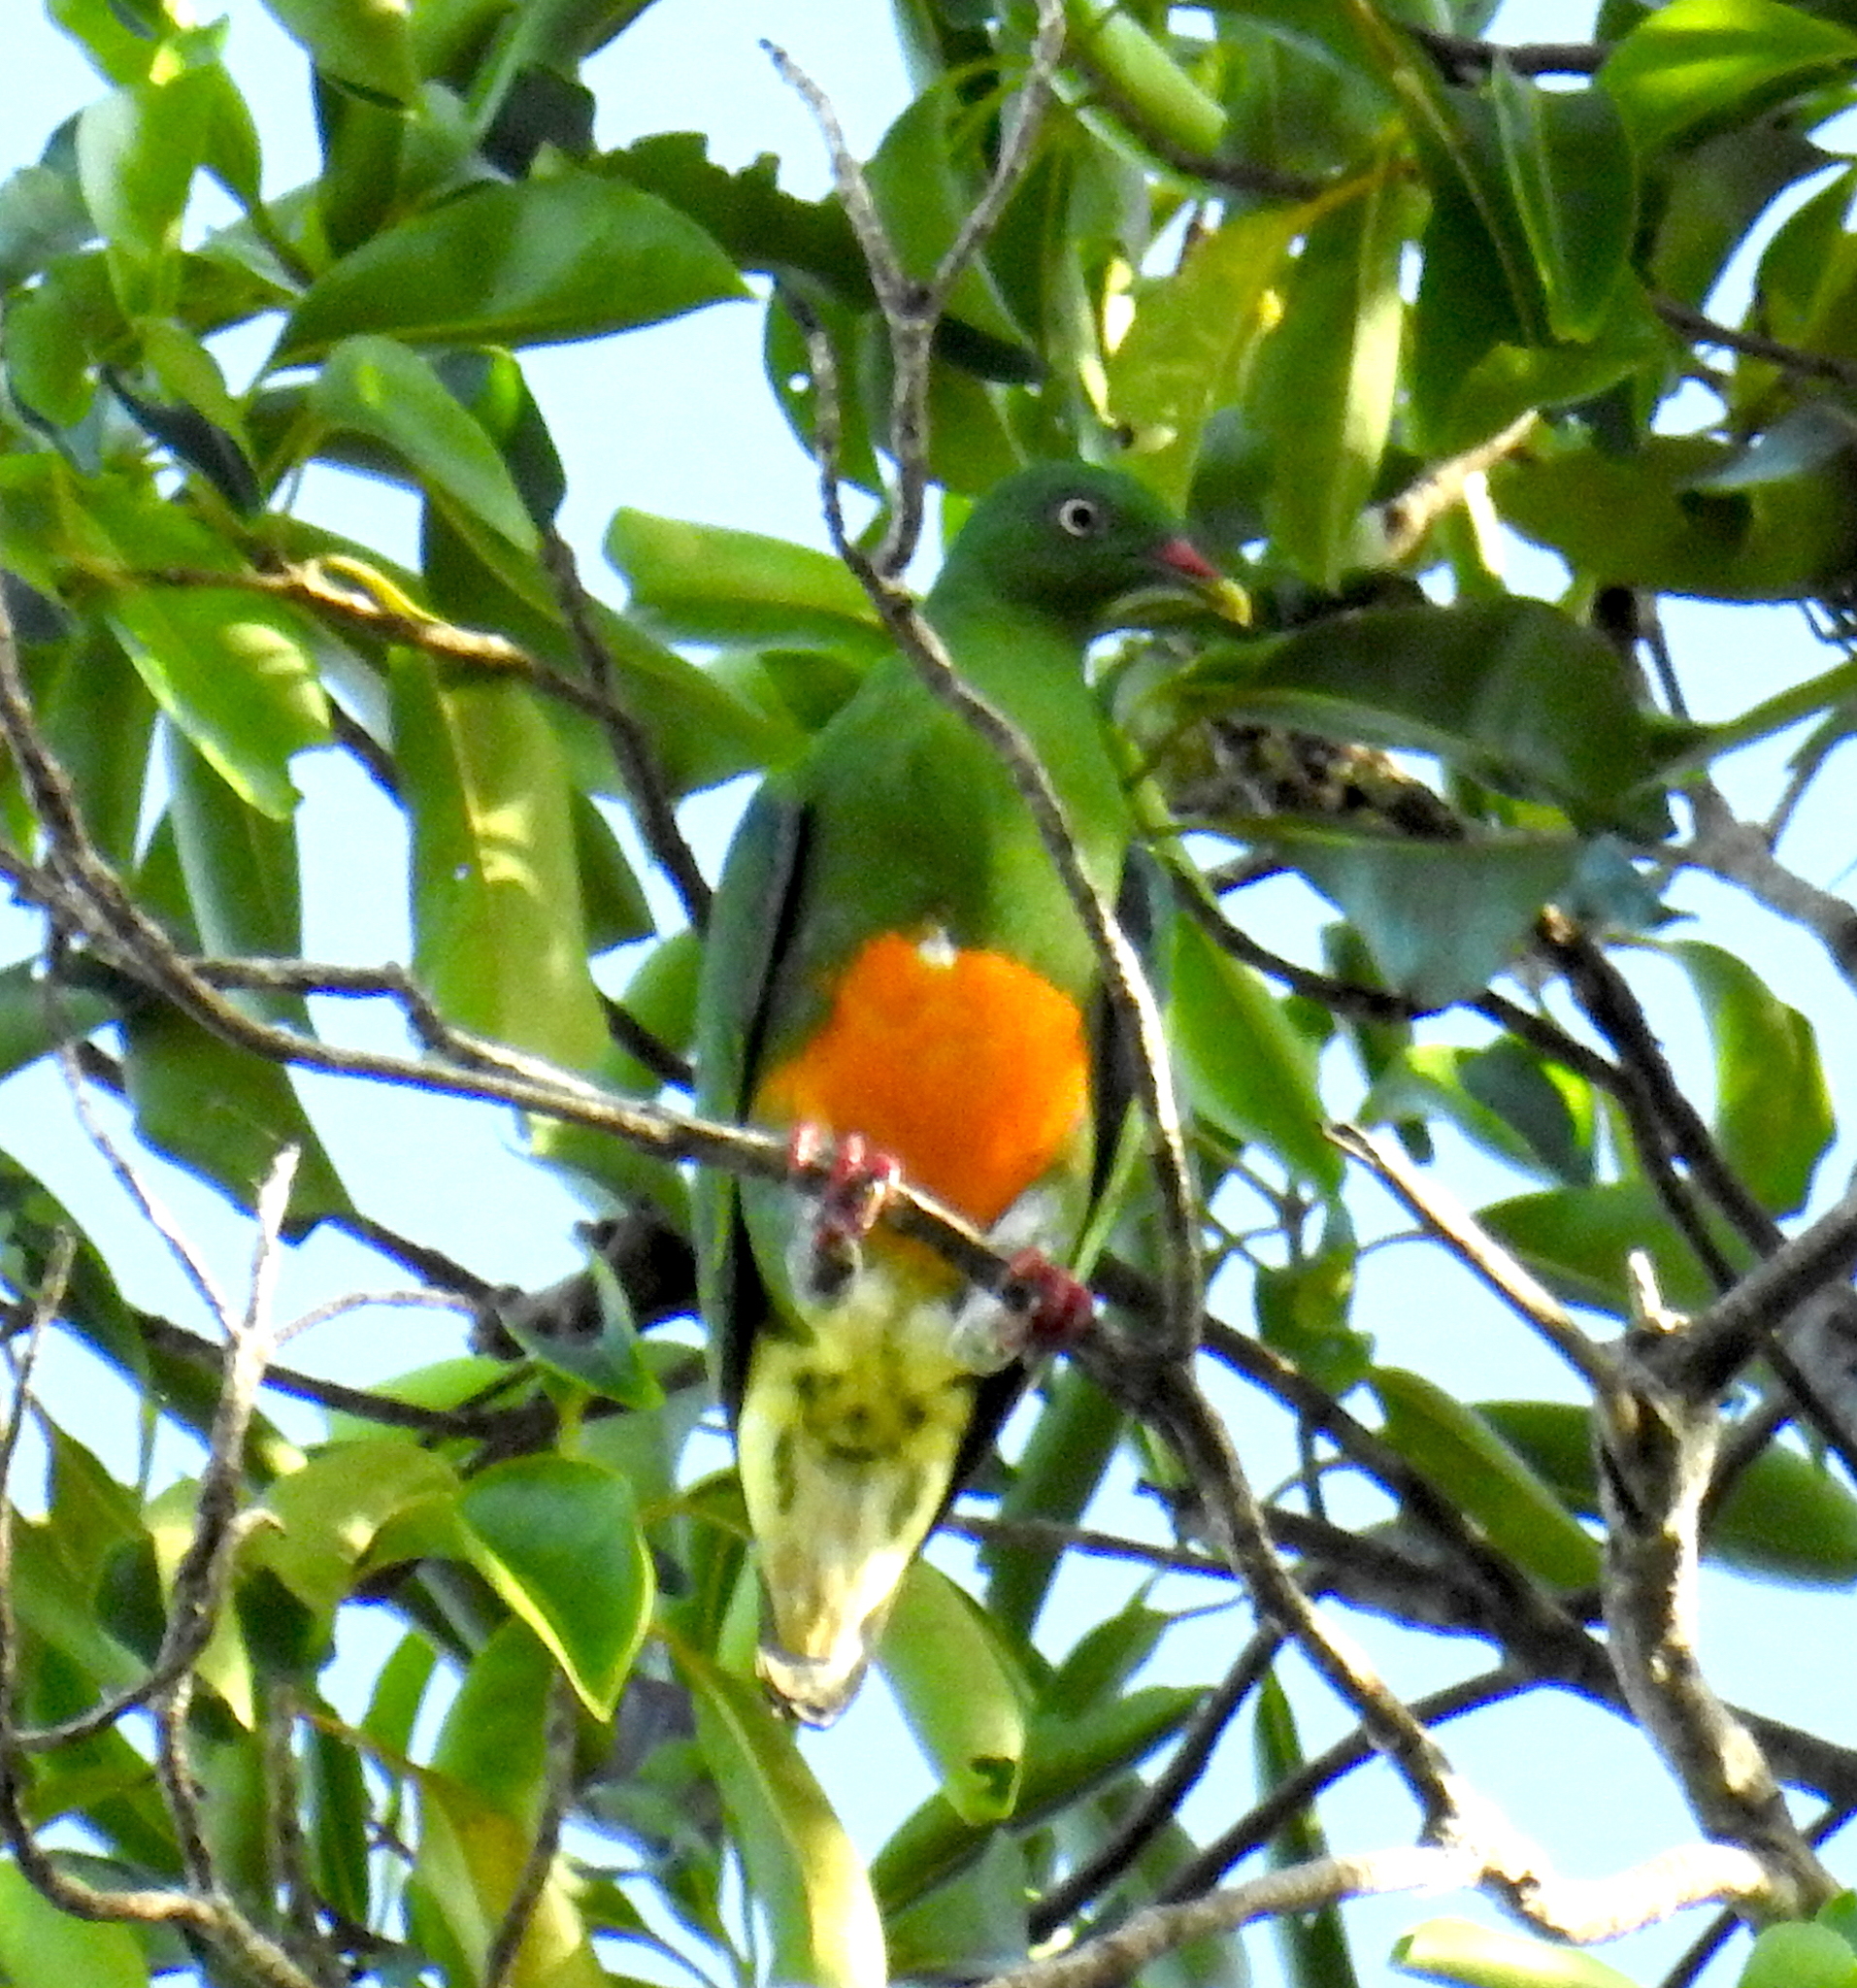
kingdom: Animalia
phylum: Chordata
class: Aves
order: Columbiformes
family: Columbidae
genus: Ptilinopus
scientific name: Ptilinopus iozonus
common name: Orange-bellied fruit dove
